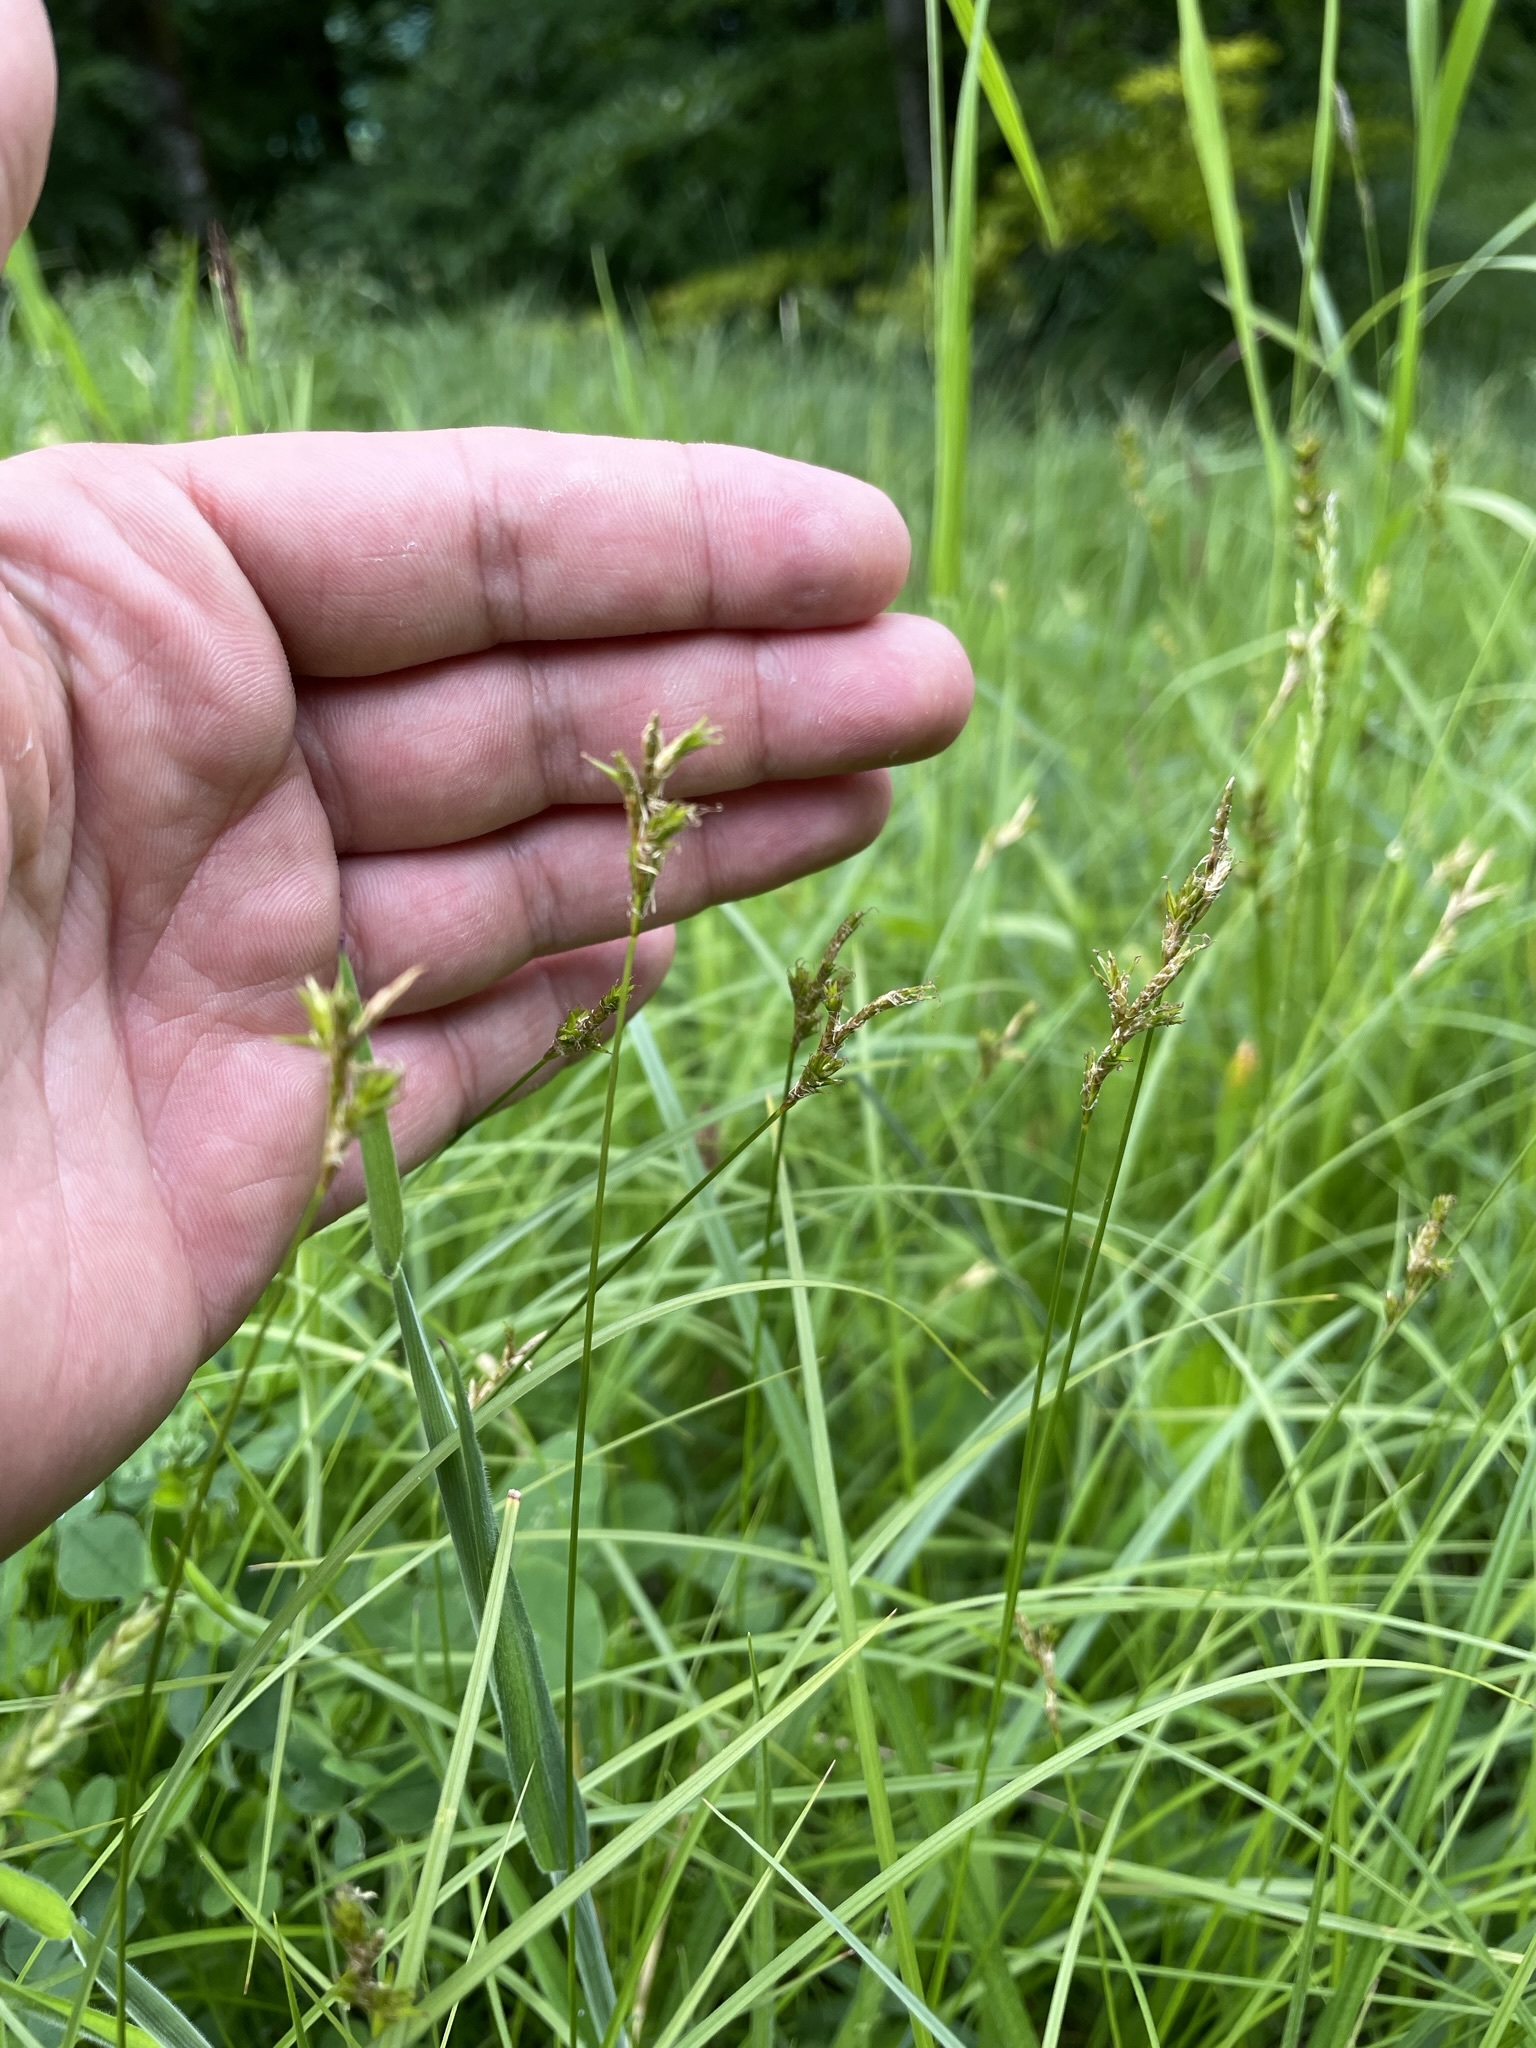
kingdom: Plantae
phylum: Tracheophyta
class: Liliopsida
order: Poales
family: Cyperaceae
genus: Carex
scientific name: Carex brizoides
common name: Quaking-grass sedge
